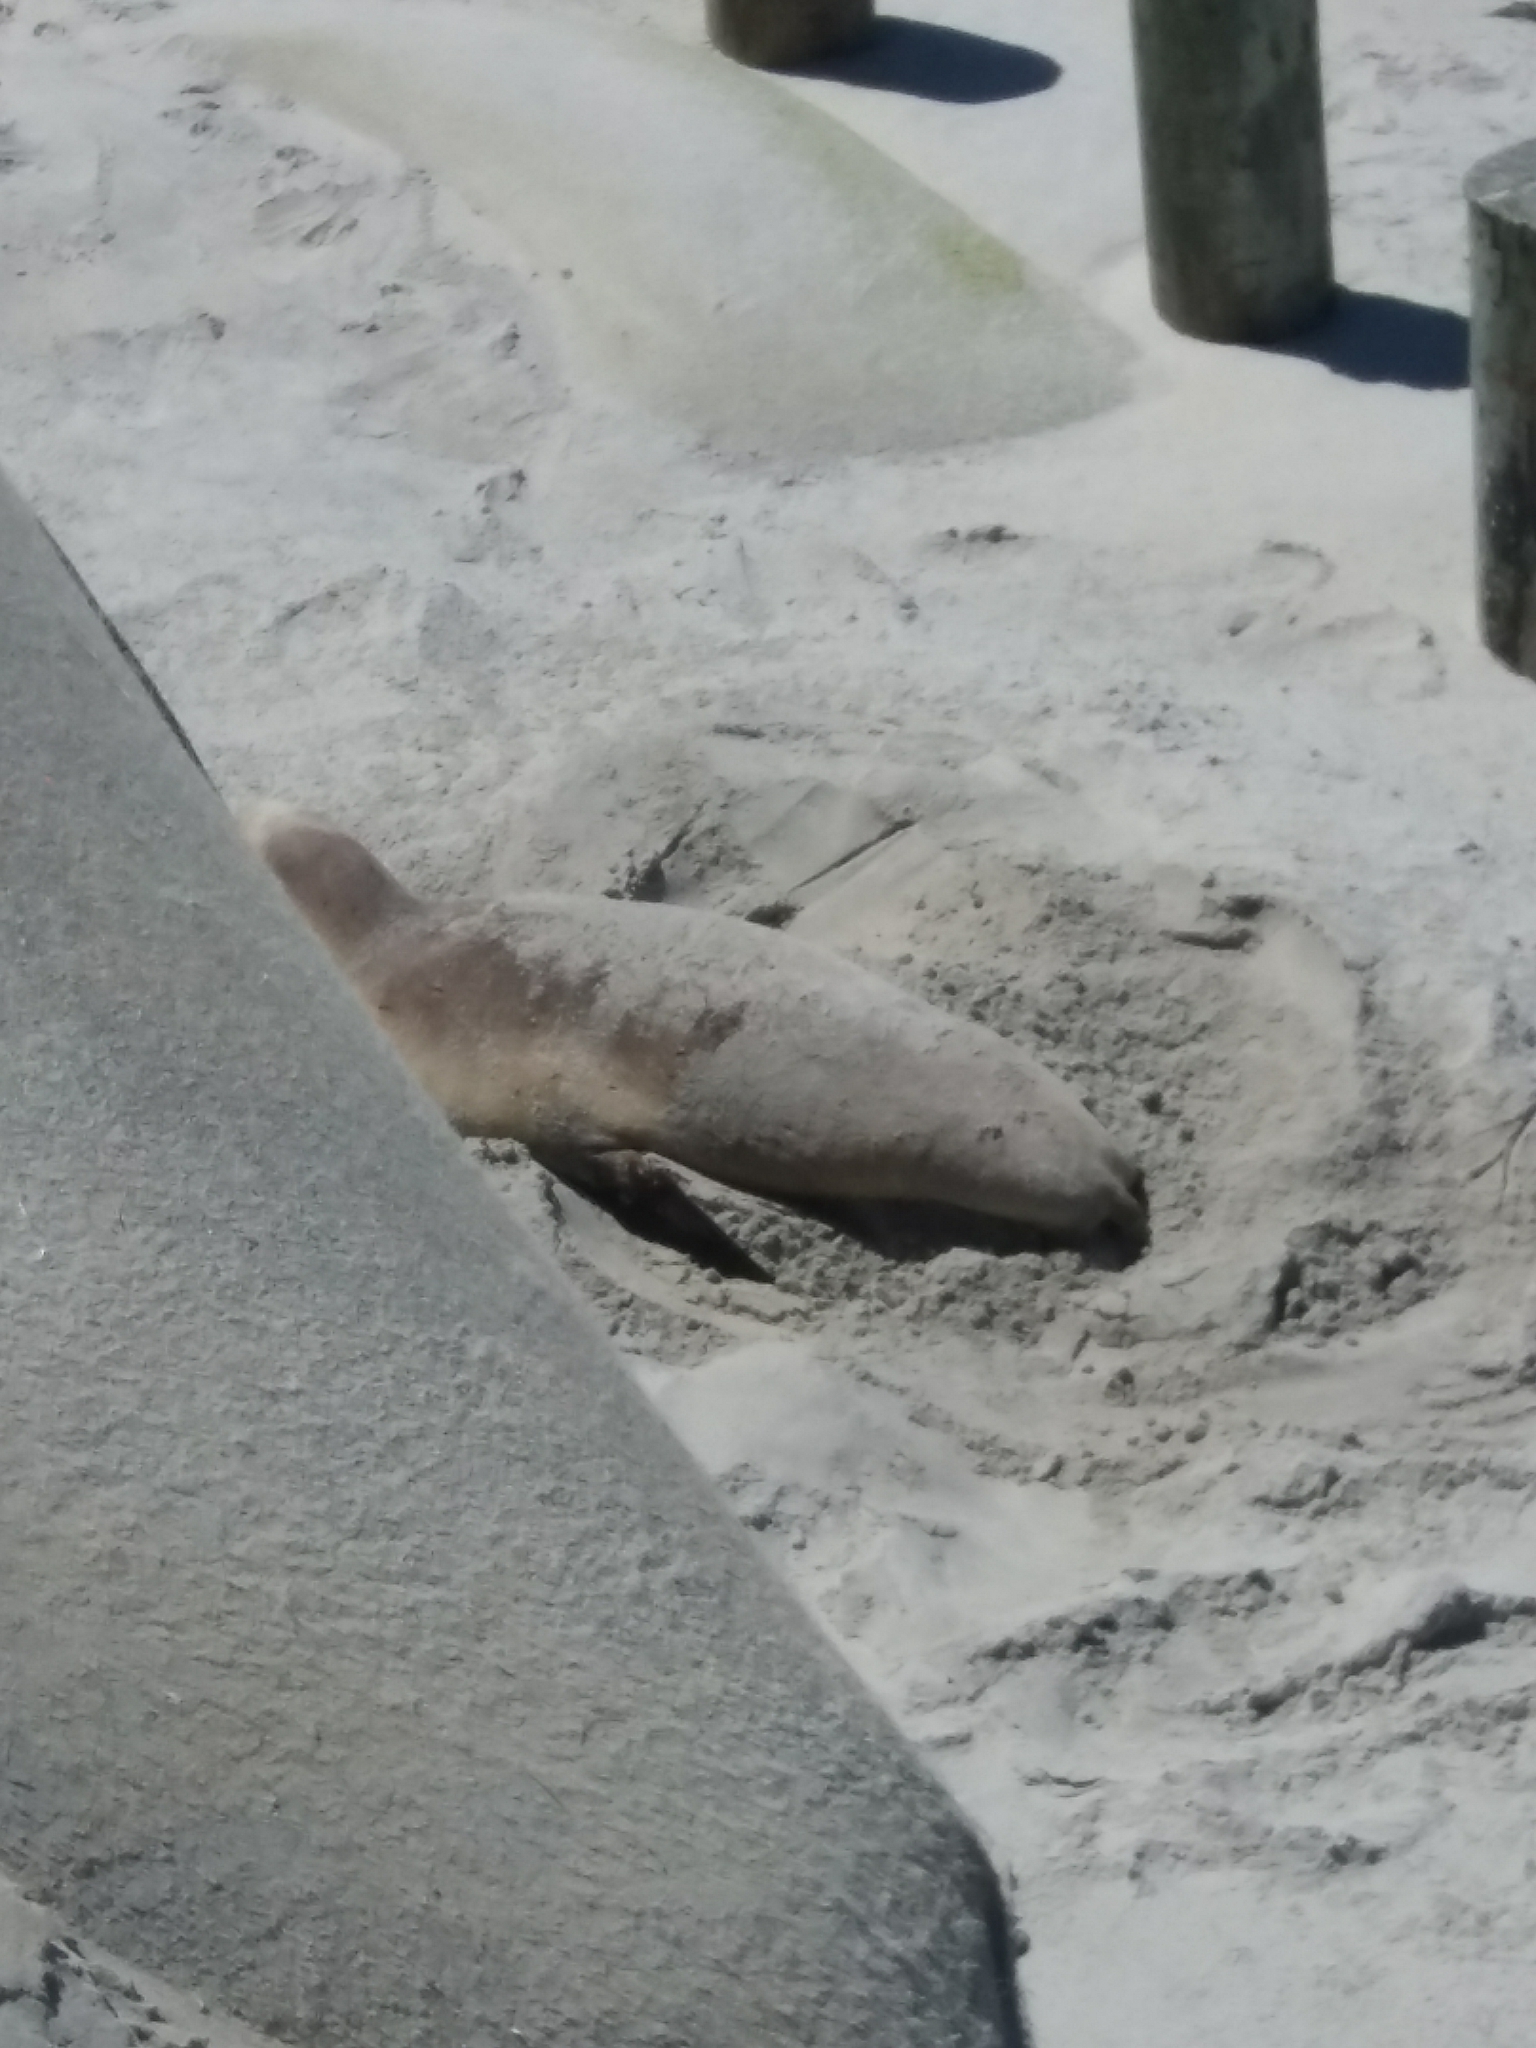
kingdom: Animalia
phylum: Chordata
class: Mammalia
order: Carnivora
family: Otariidae
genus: Phocarctos
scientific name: Phocarctos hookeri
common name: New zealand sea lion
